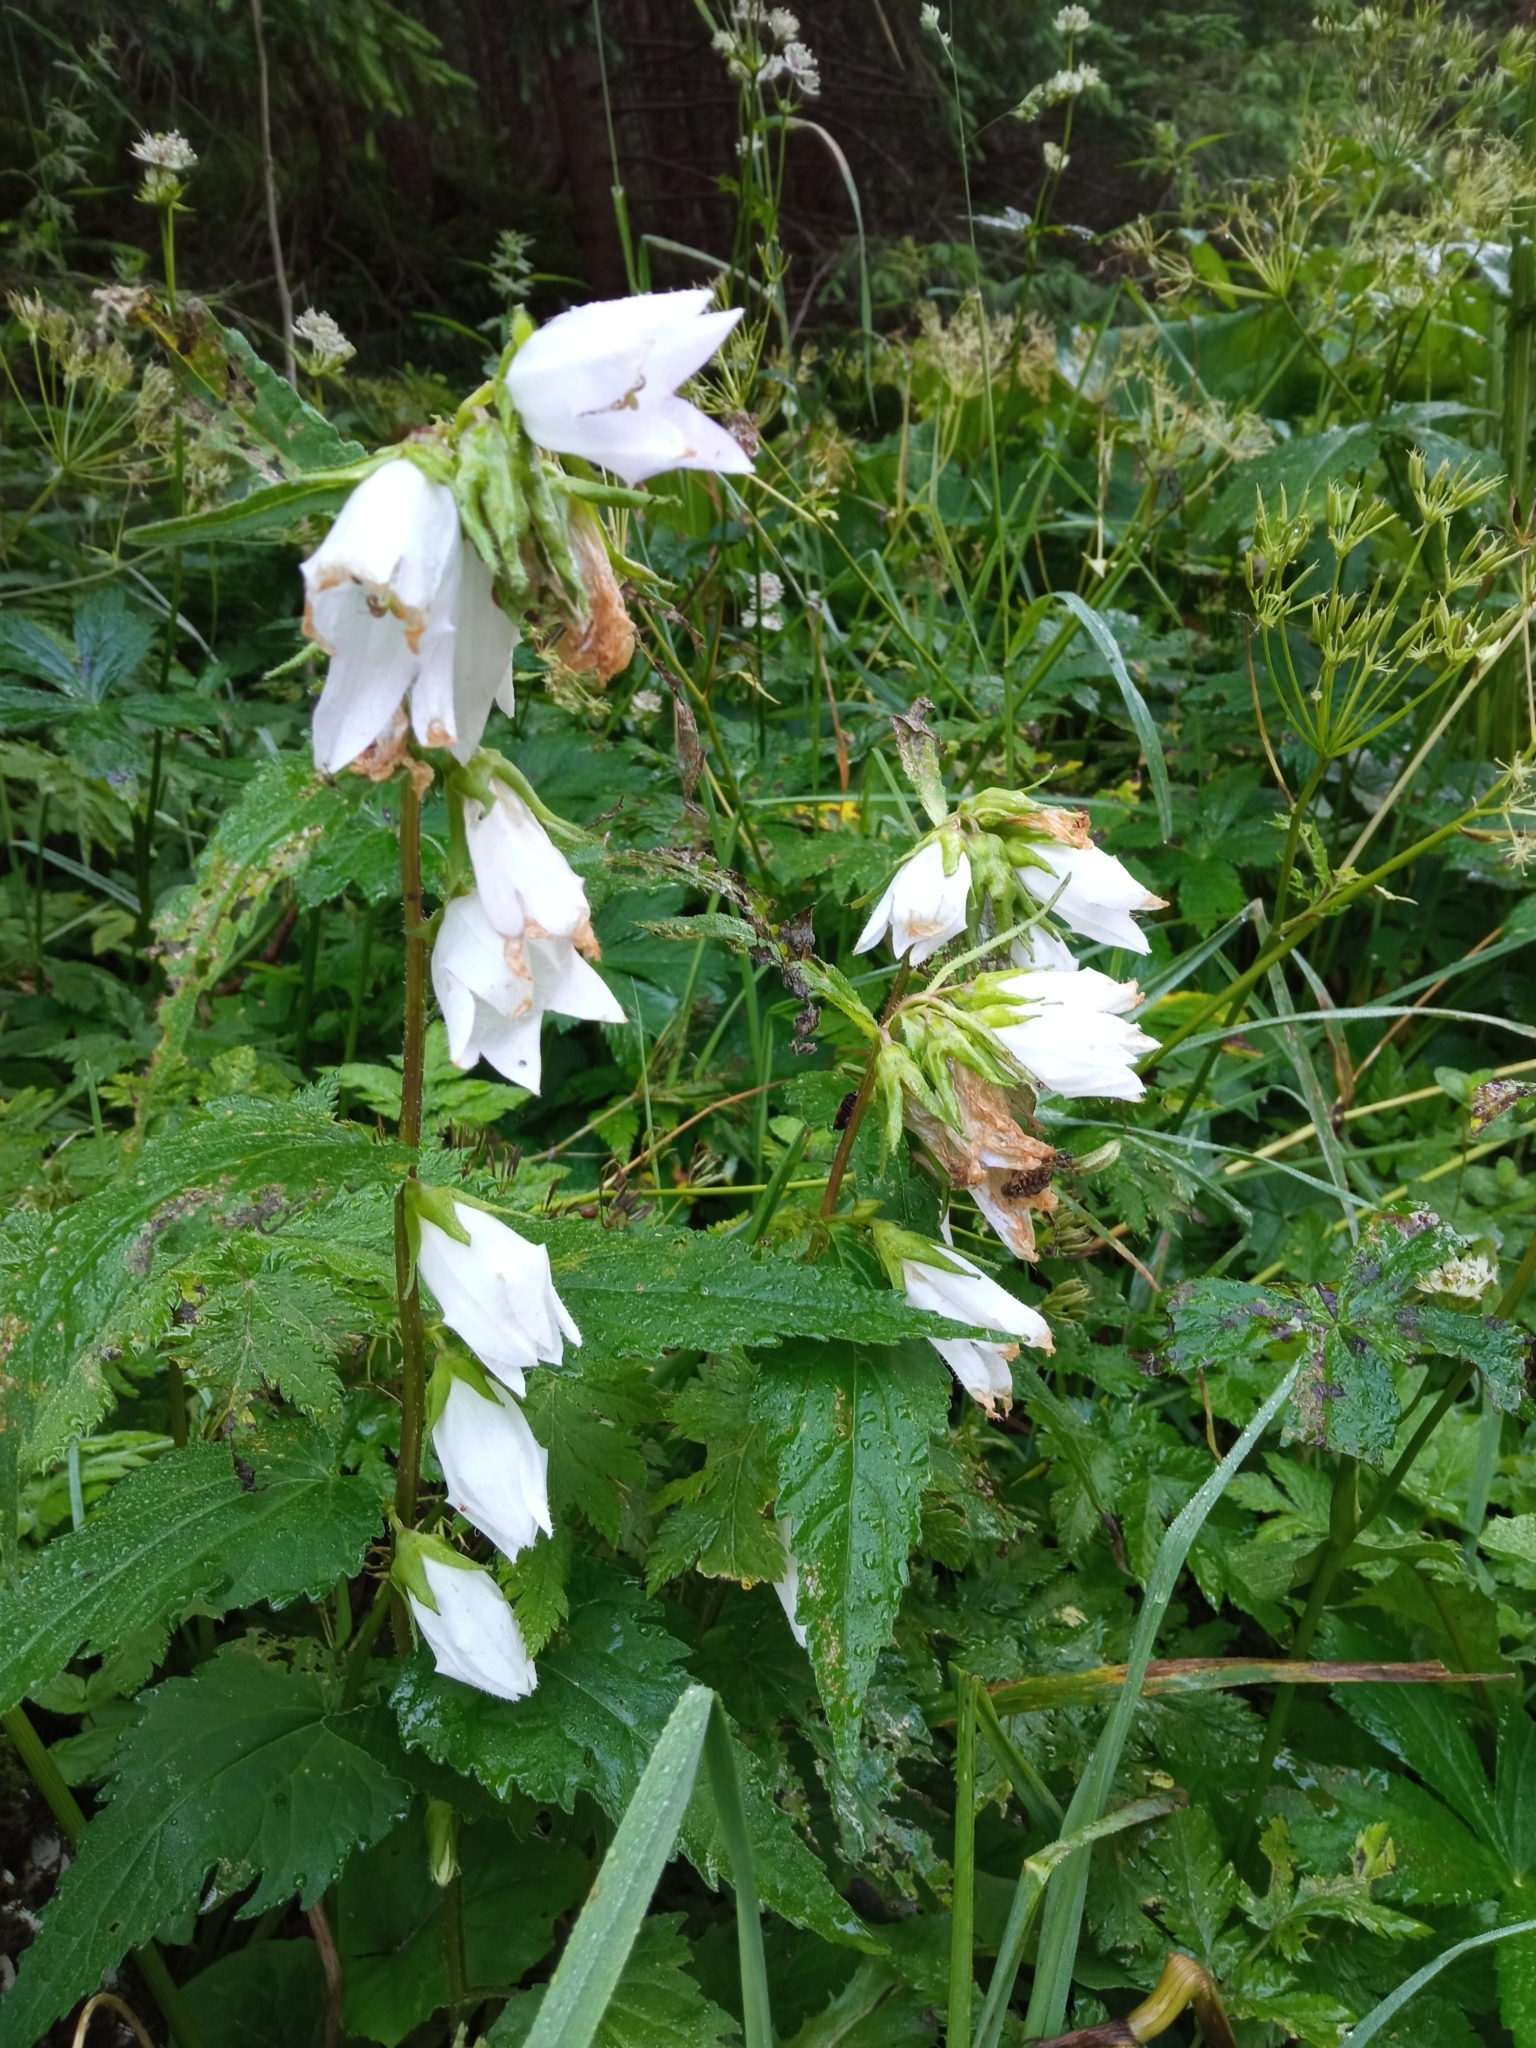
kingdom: Plantae
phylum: Tracheophyta
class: Magnoliopsida
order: Asterales
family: Campanulaceae
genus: Campanula
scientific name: Campanula trachelium
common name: Nettle-leaved bellflower
